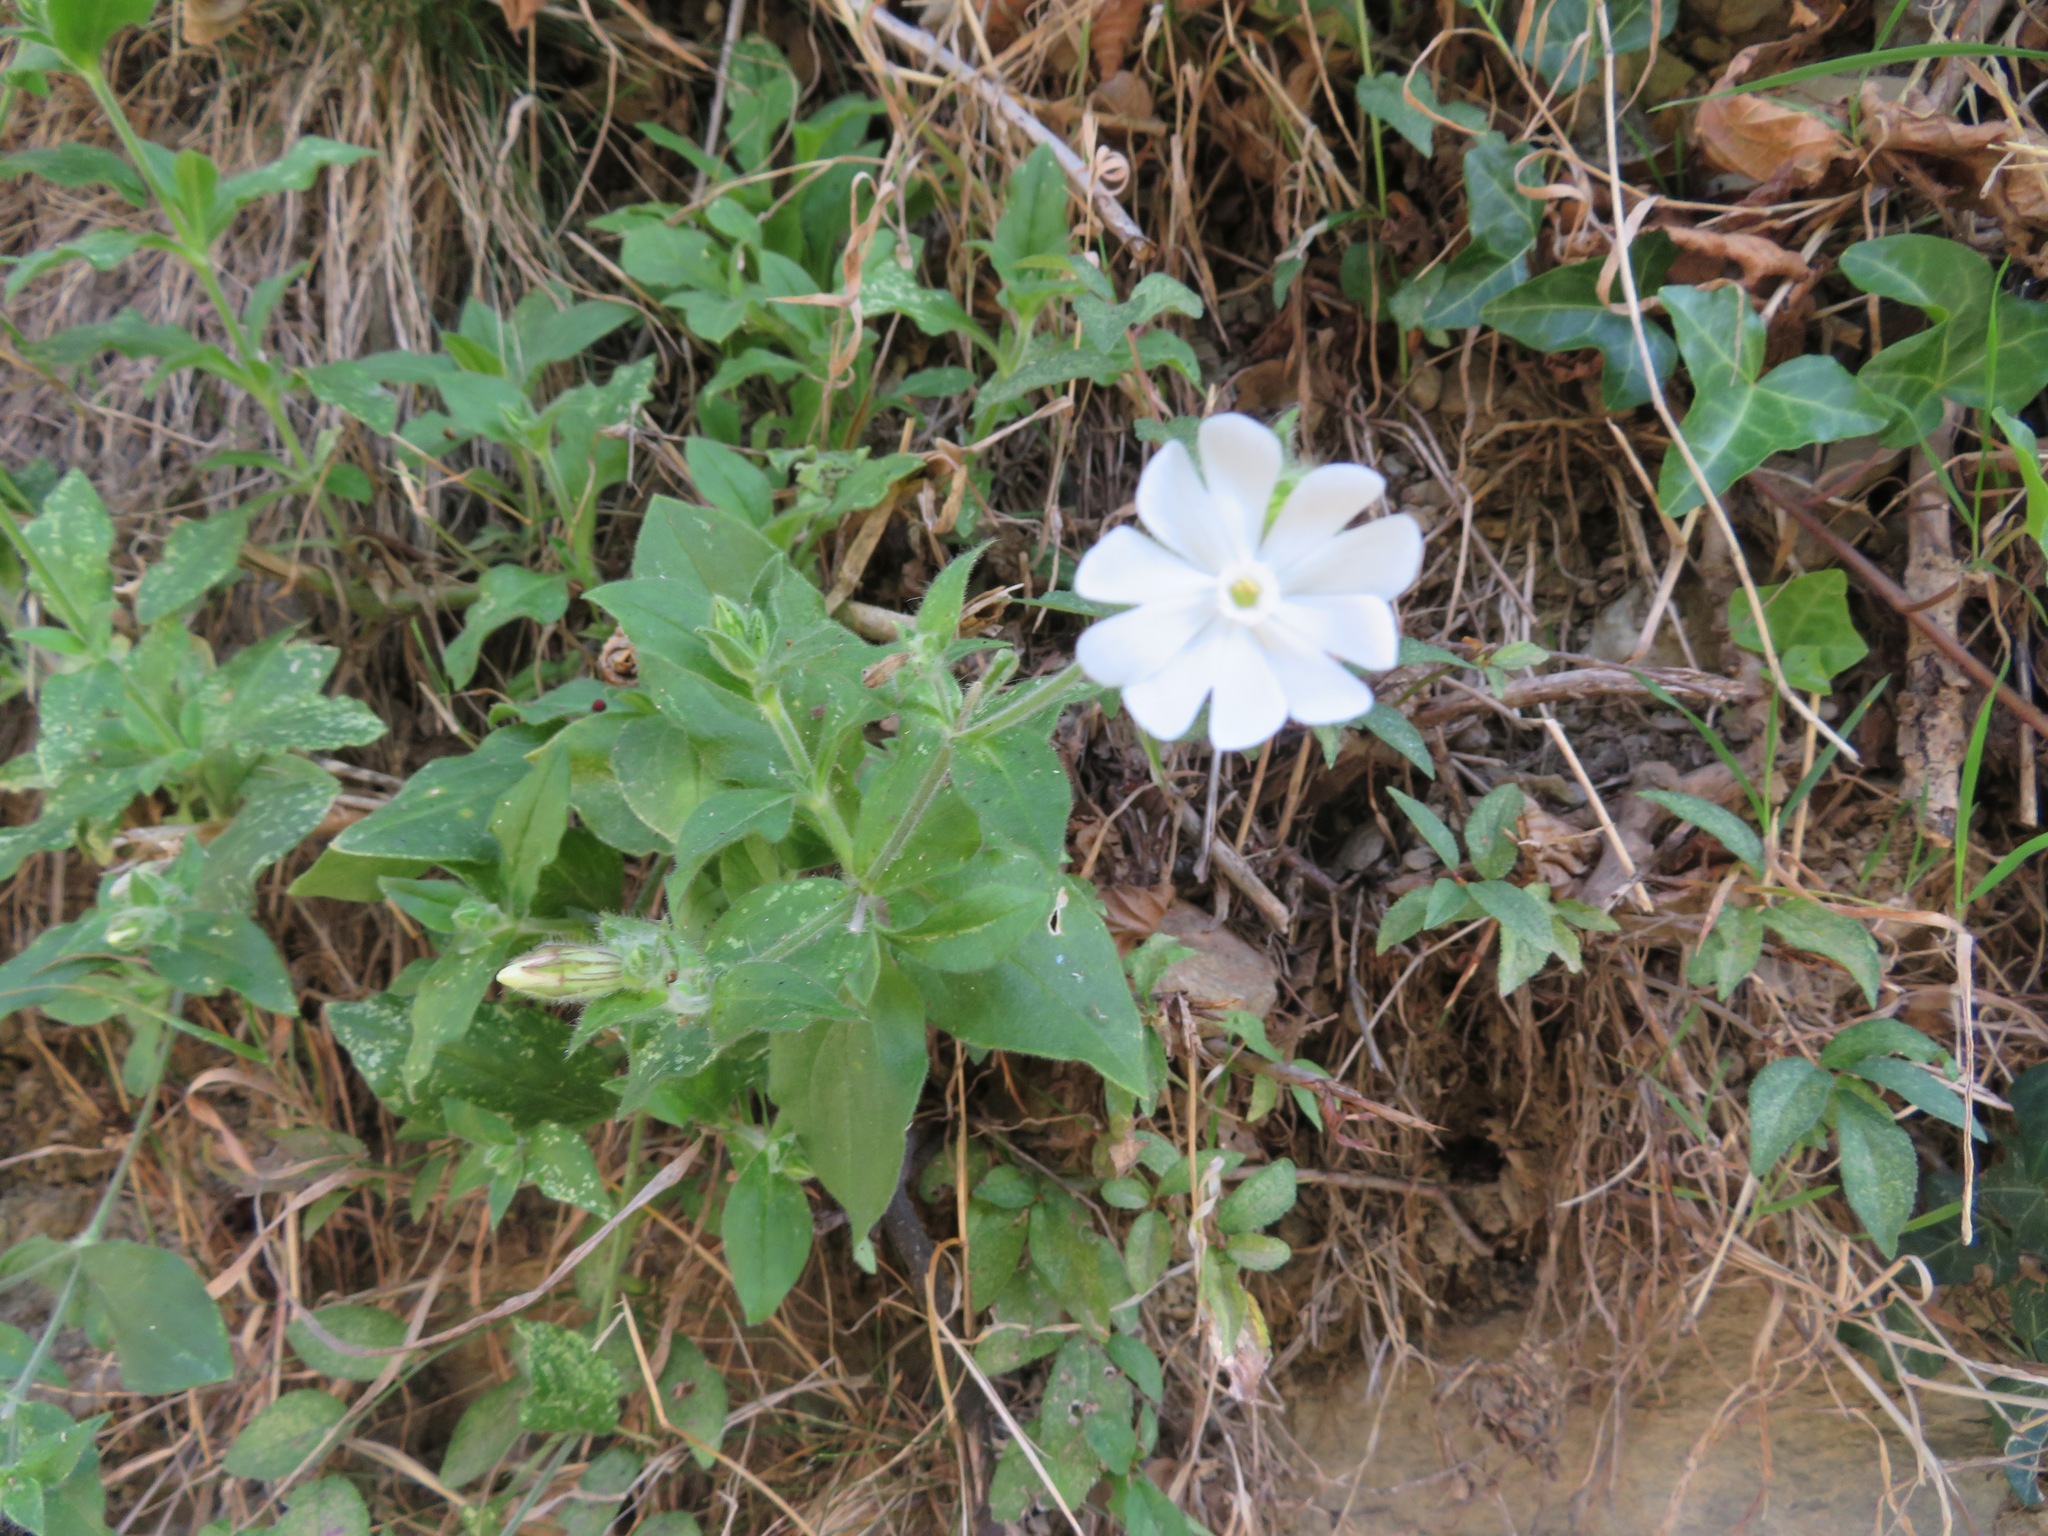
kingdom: Plantae
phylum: Tracheophyta
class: Magnoliopsida
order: Caryophyllales
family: Caryophyllaceae
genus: Silene
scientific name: Silene latifolia
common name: White campion
